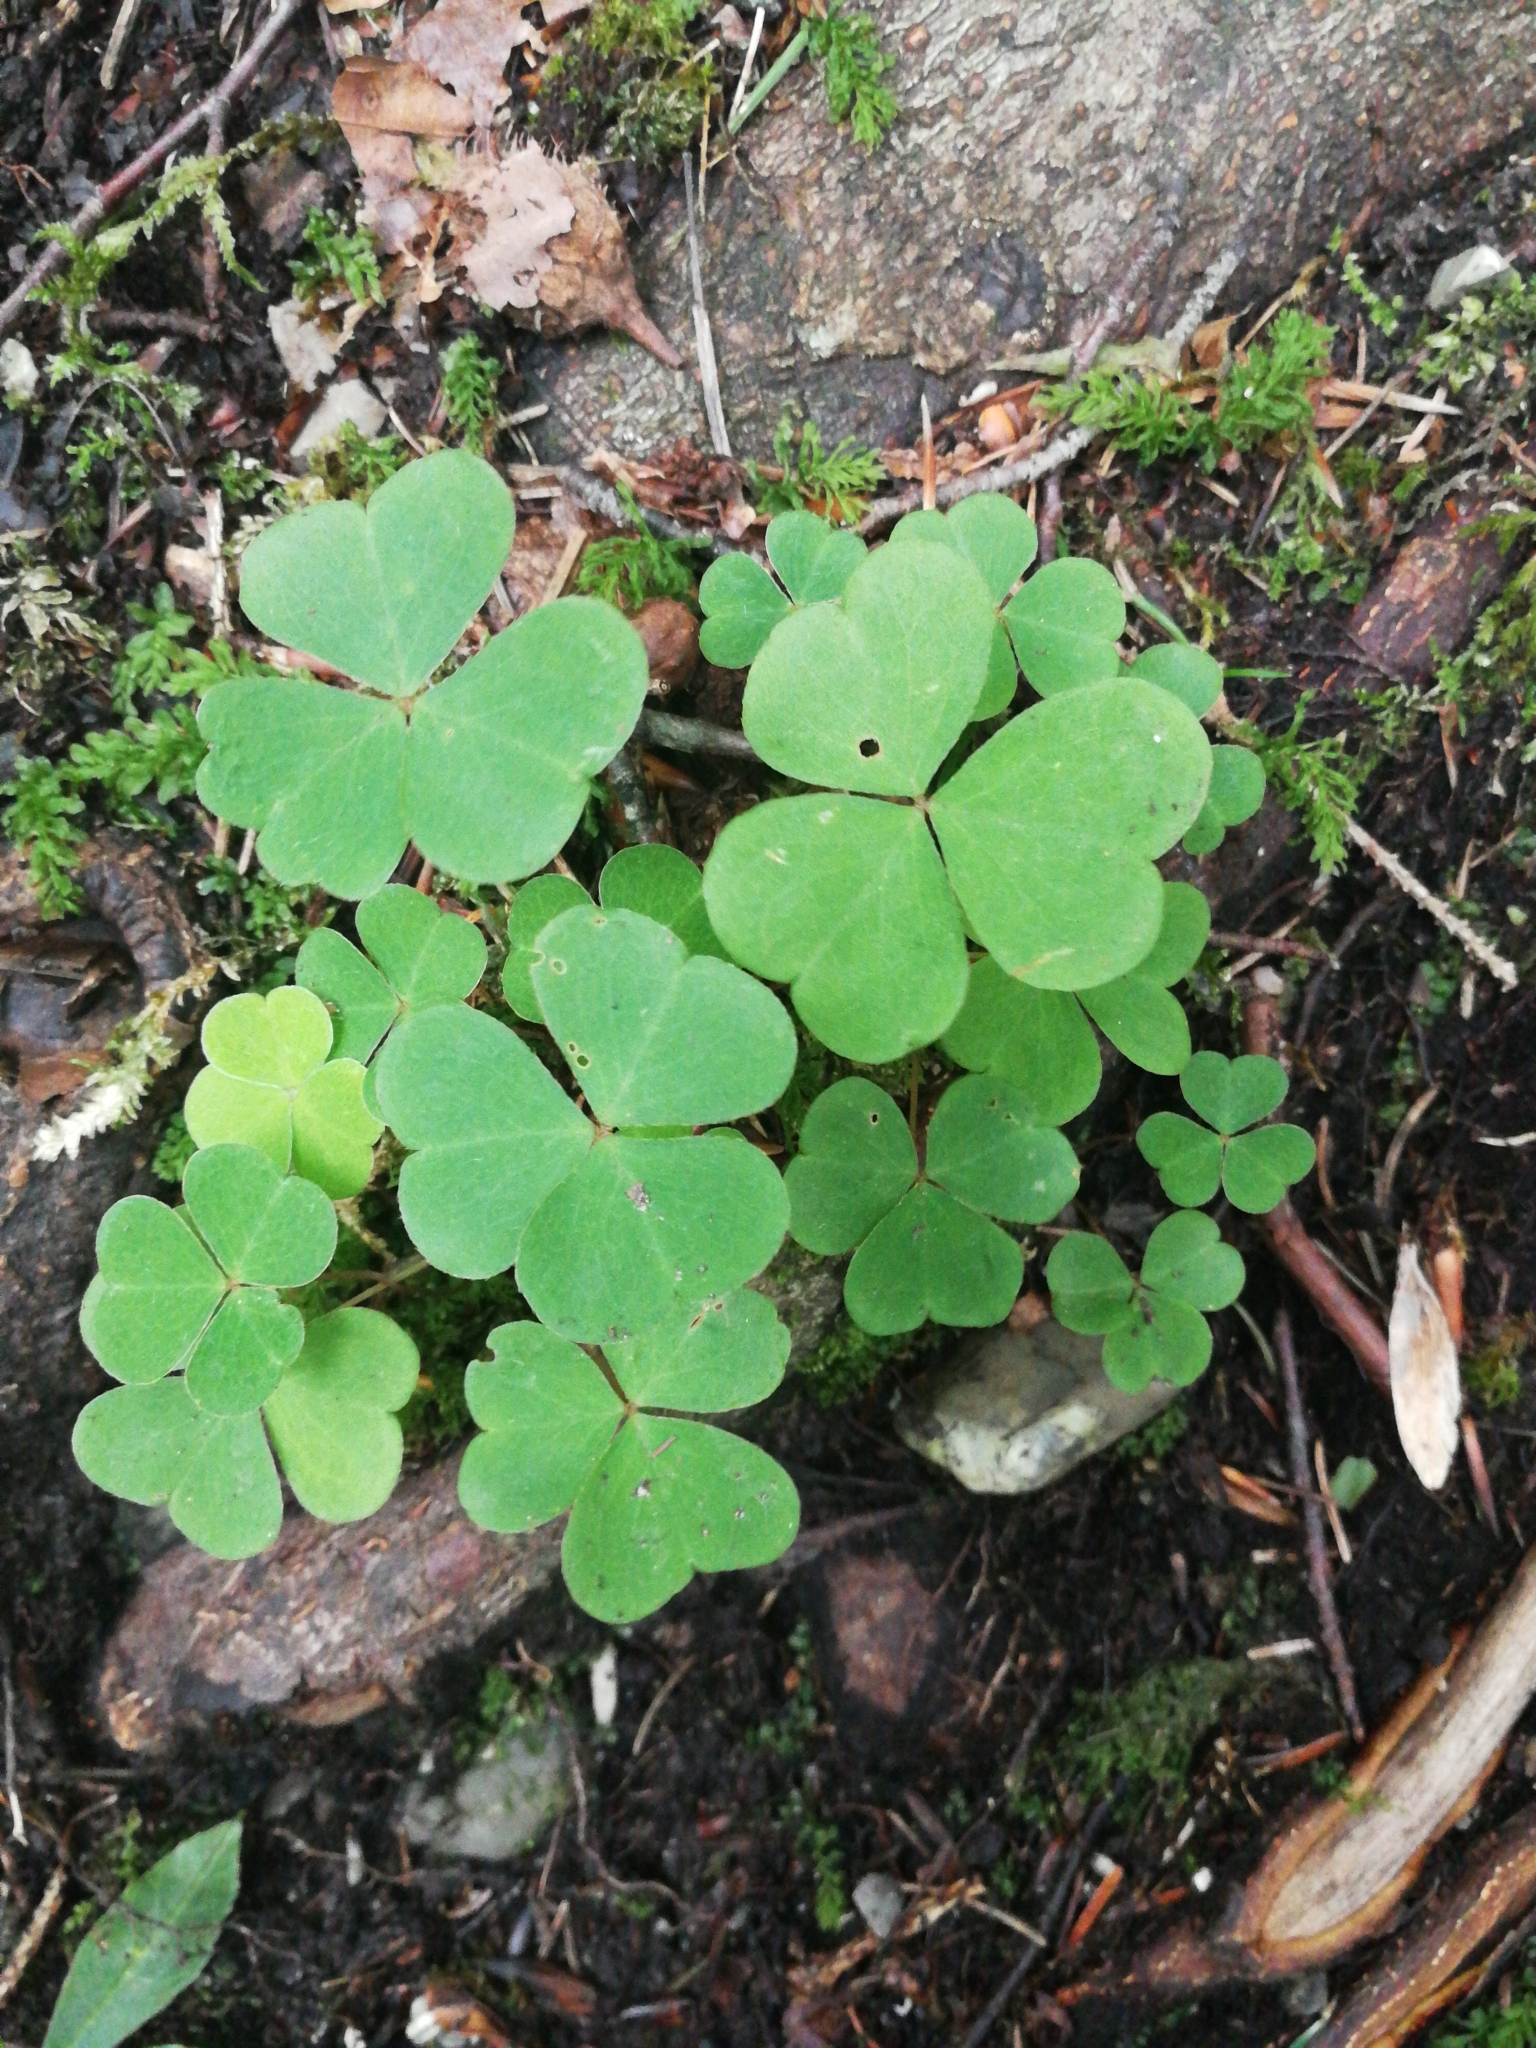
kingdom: Plantae
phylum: Tracheophyta
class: Magnoliopsida
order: Oxalidales
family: Oxalidaceae
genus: Oxalis
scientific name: Oxalis acetosella
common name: Wood-sorrel
